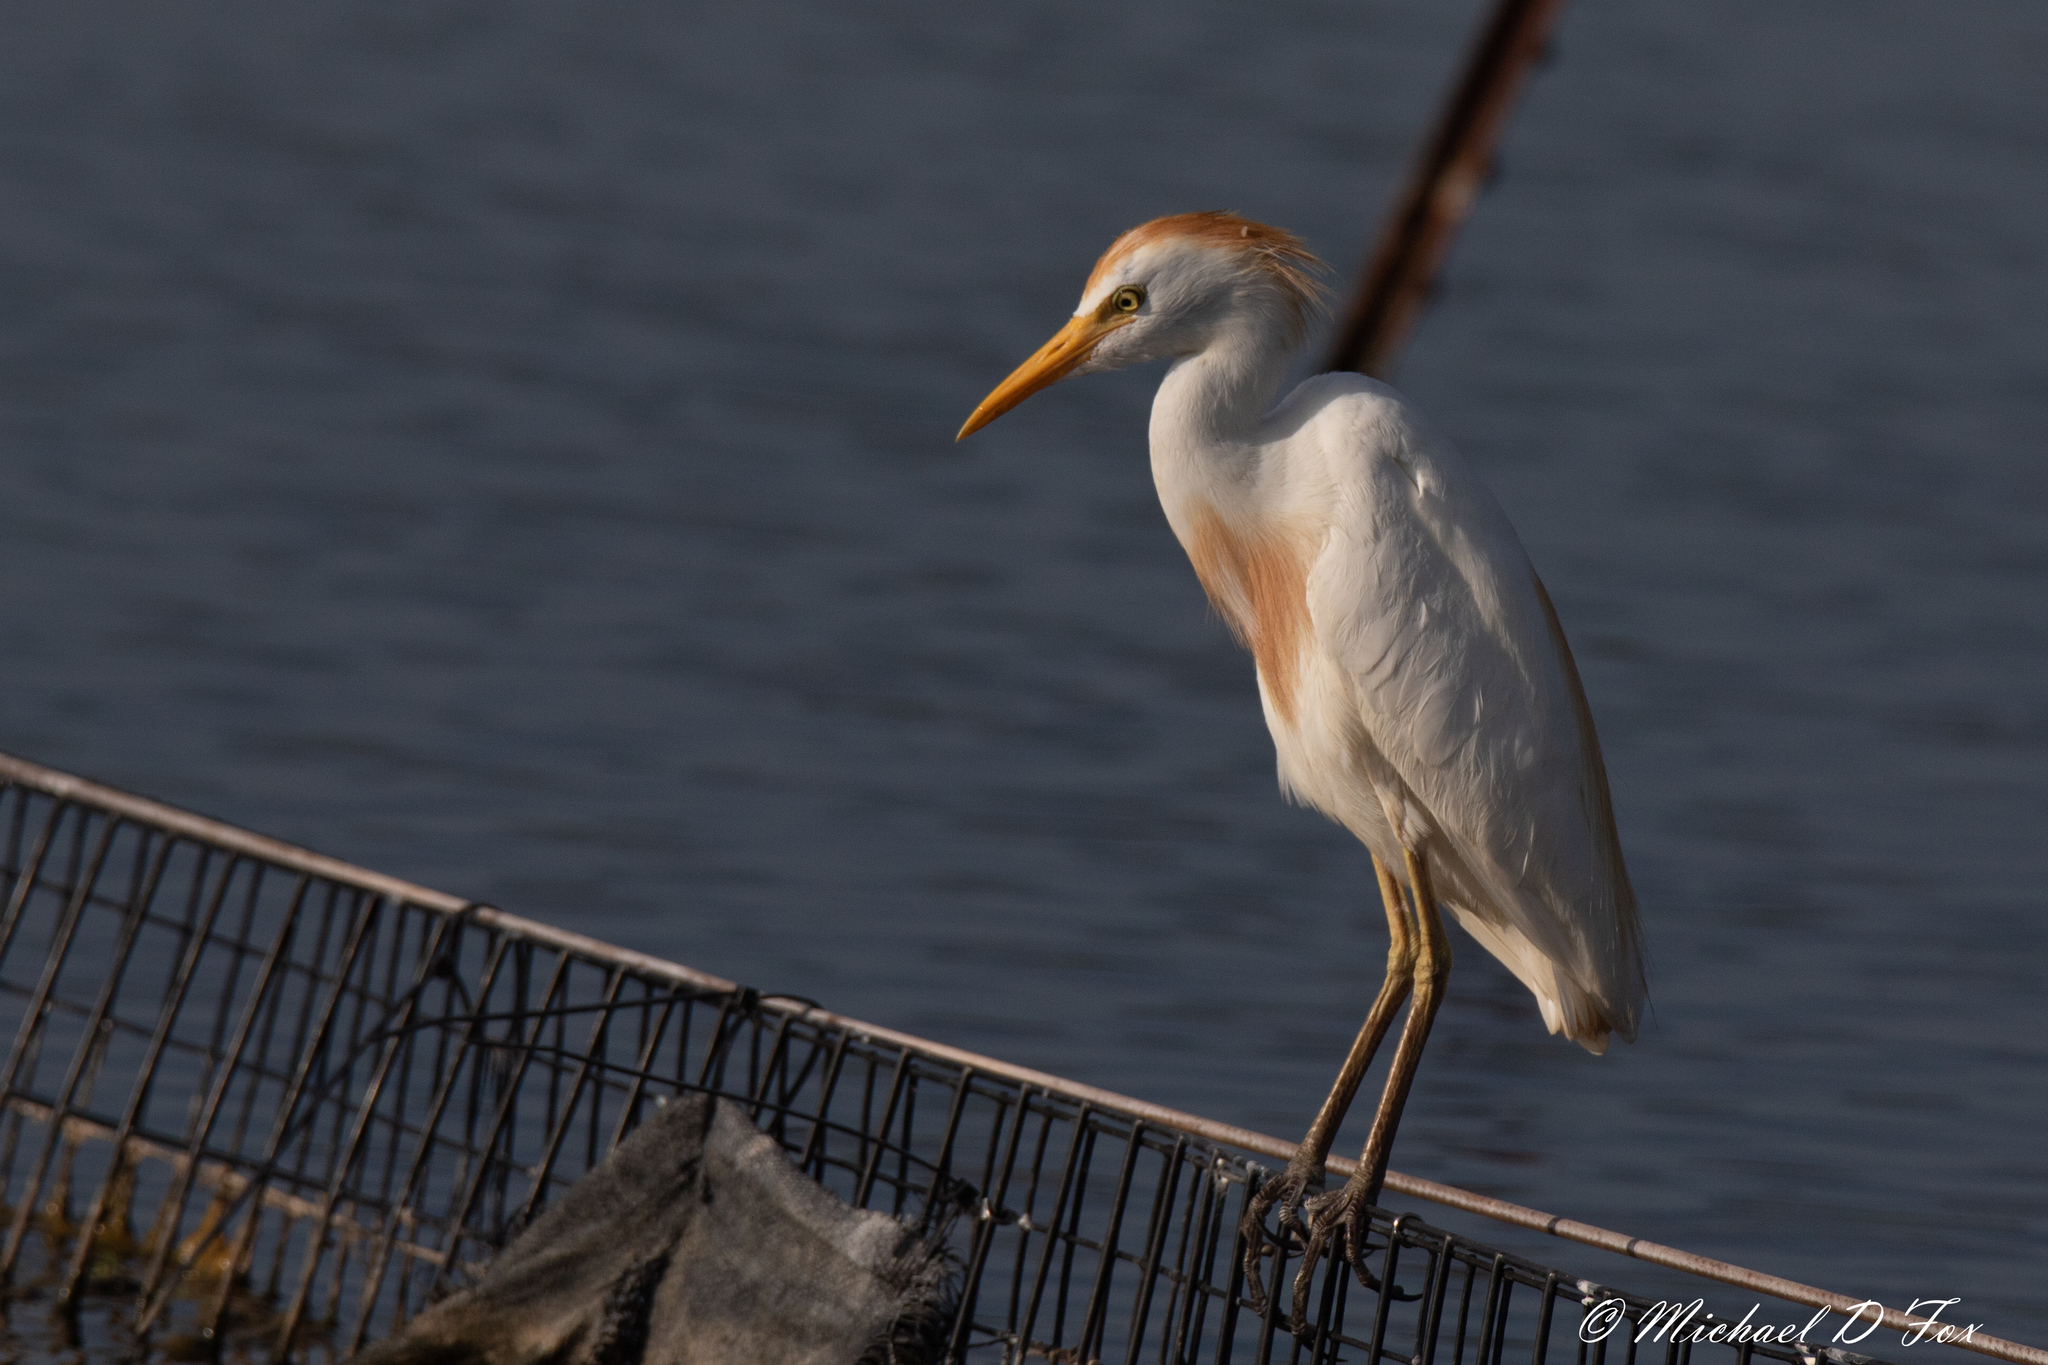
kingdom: Animalia
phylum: Chordata
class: Aves
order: Pelecaniformes
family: Ardeidae
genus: Bubulcus
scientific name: Bubulcus ibis
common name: Cattle egret
